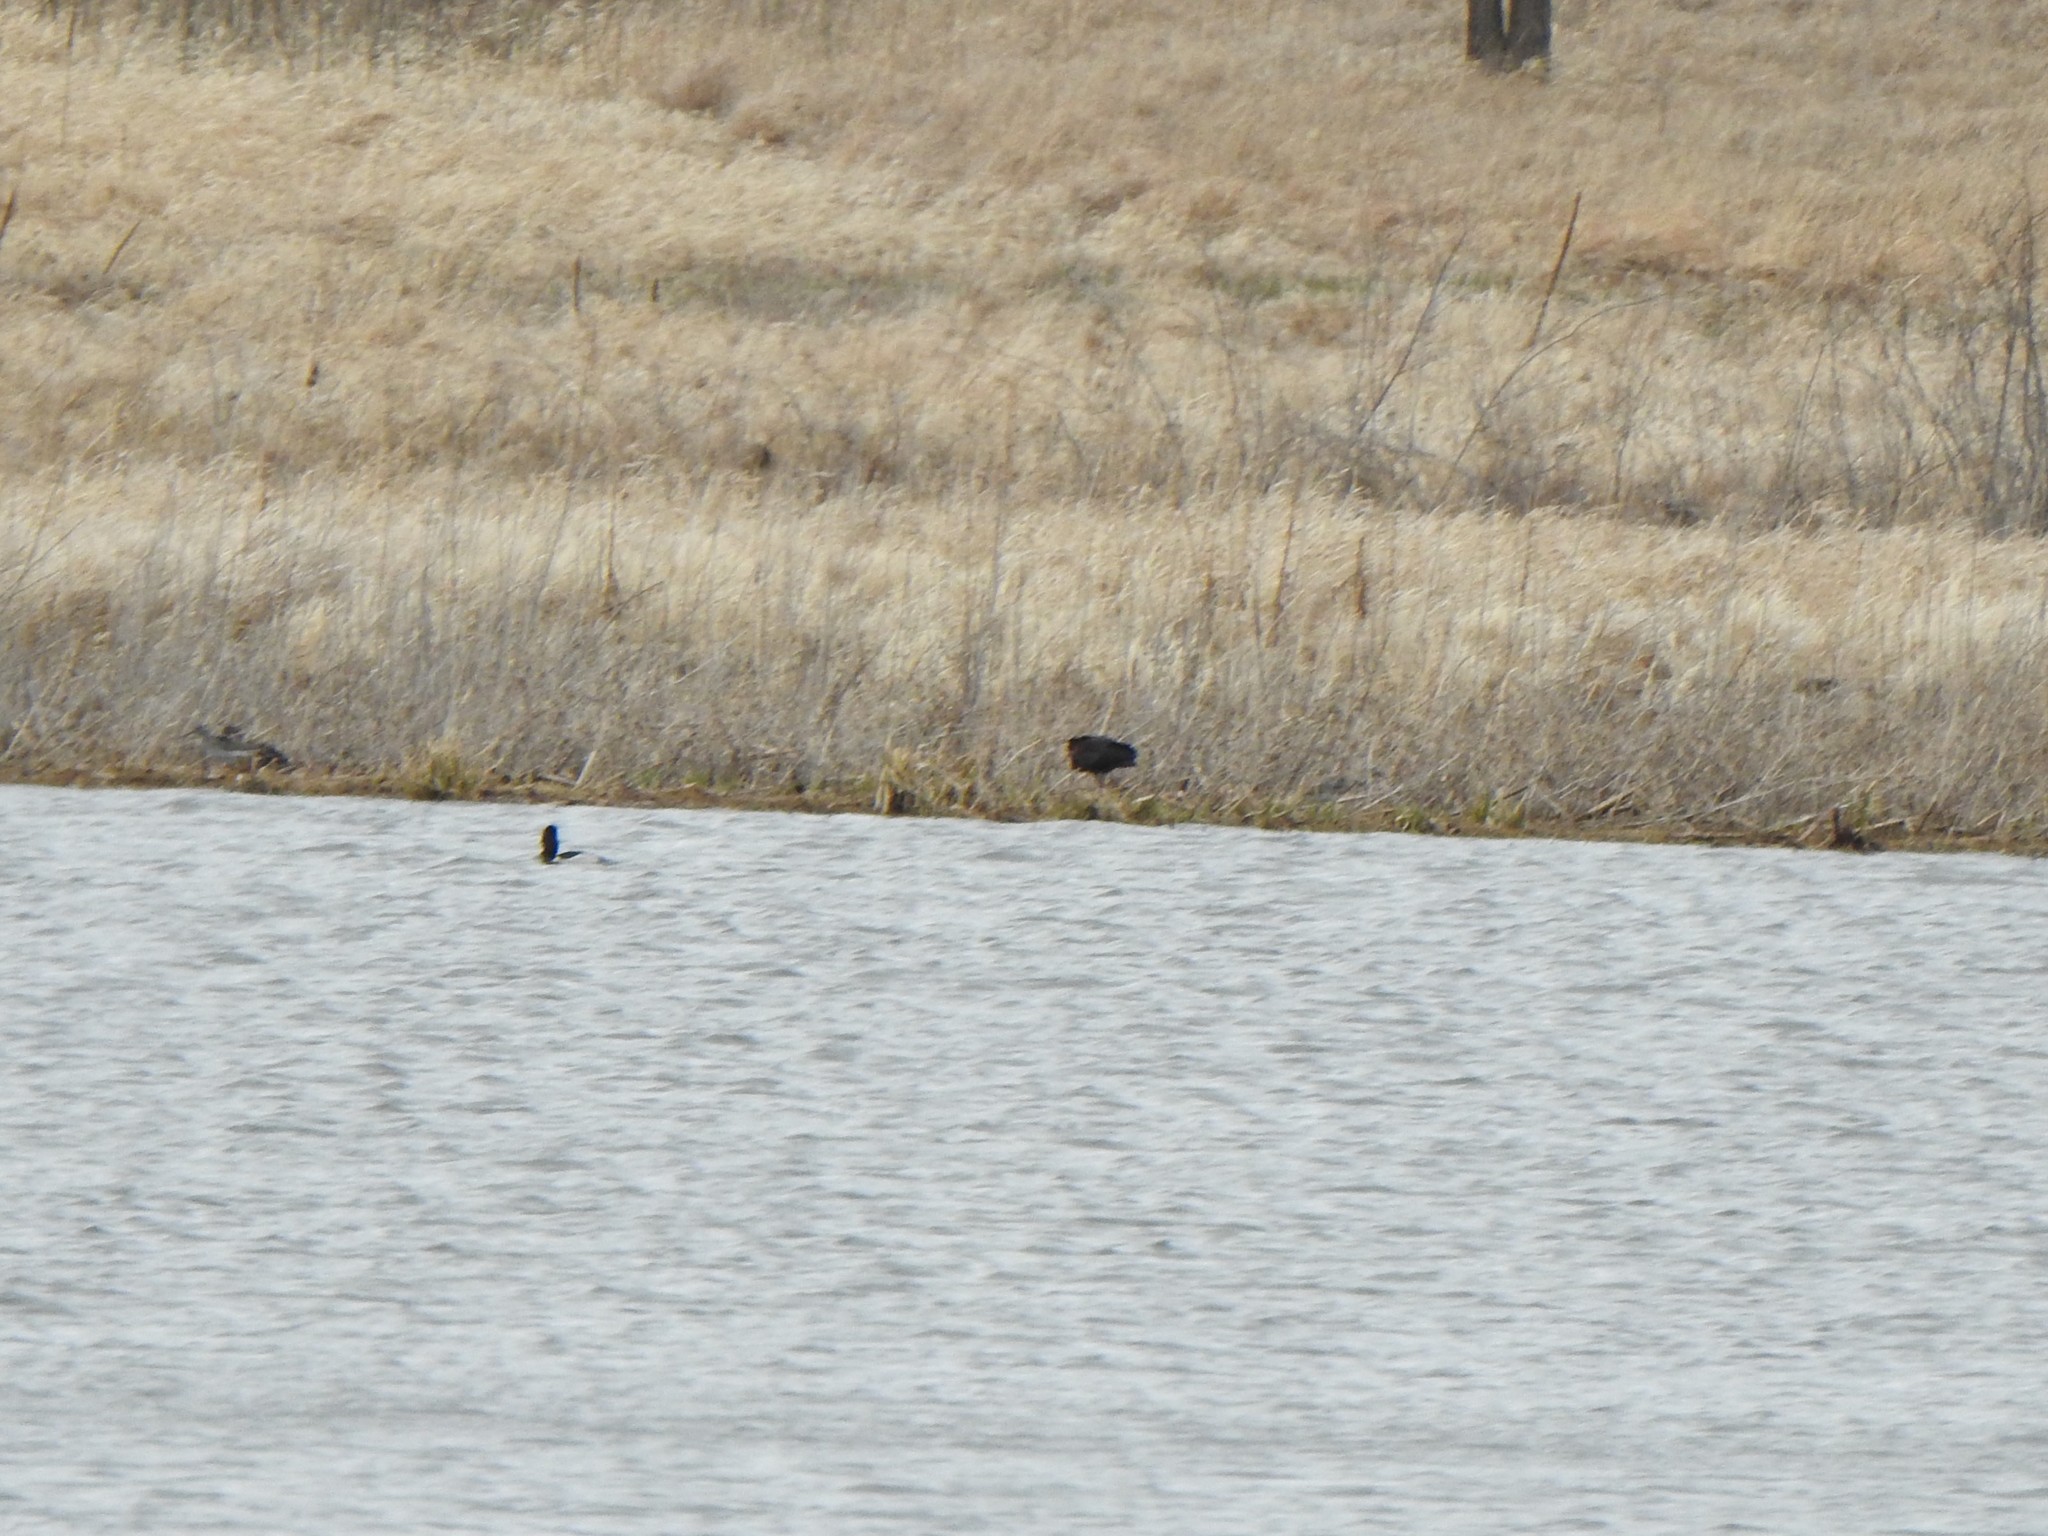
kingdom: Animalia
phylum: Chordata
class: Aves
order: Pelecaniformes
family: Threskiornithidae
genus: Plegadis
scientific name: Plegadis chihi
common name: White-faced ibis
